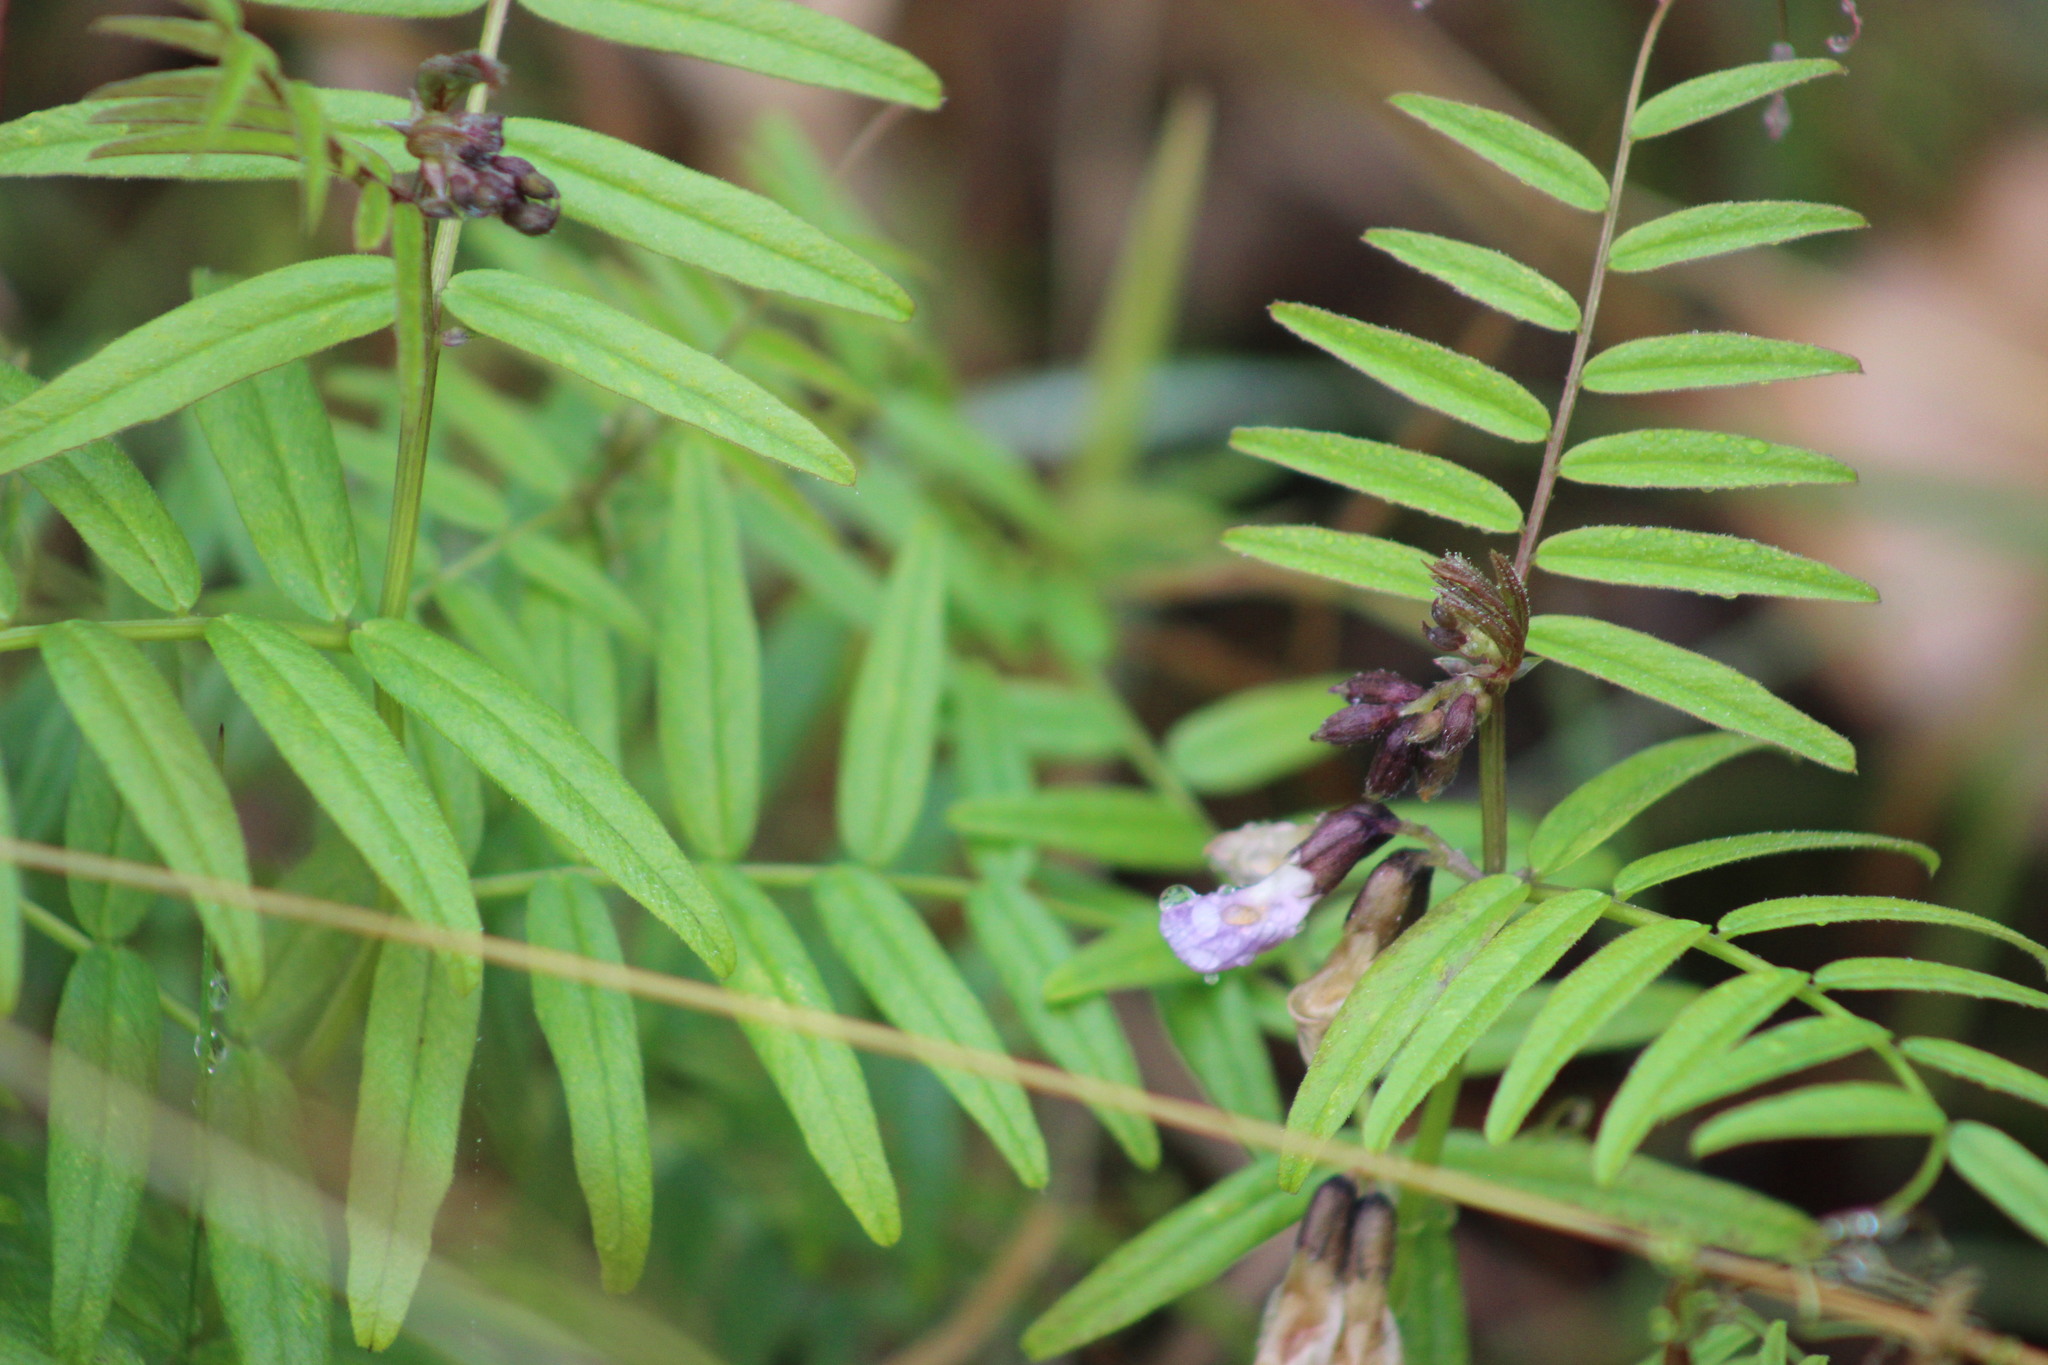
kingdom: Plantae
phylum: Tracheophyta
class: Magnoliopsida
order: Fabales
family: Fabaceae
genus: Vicia
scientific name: Vicia sepium
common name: Bush vetch
